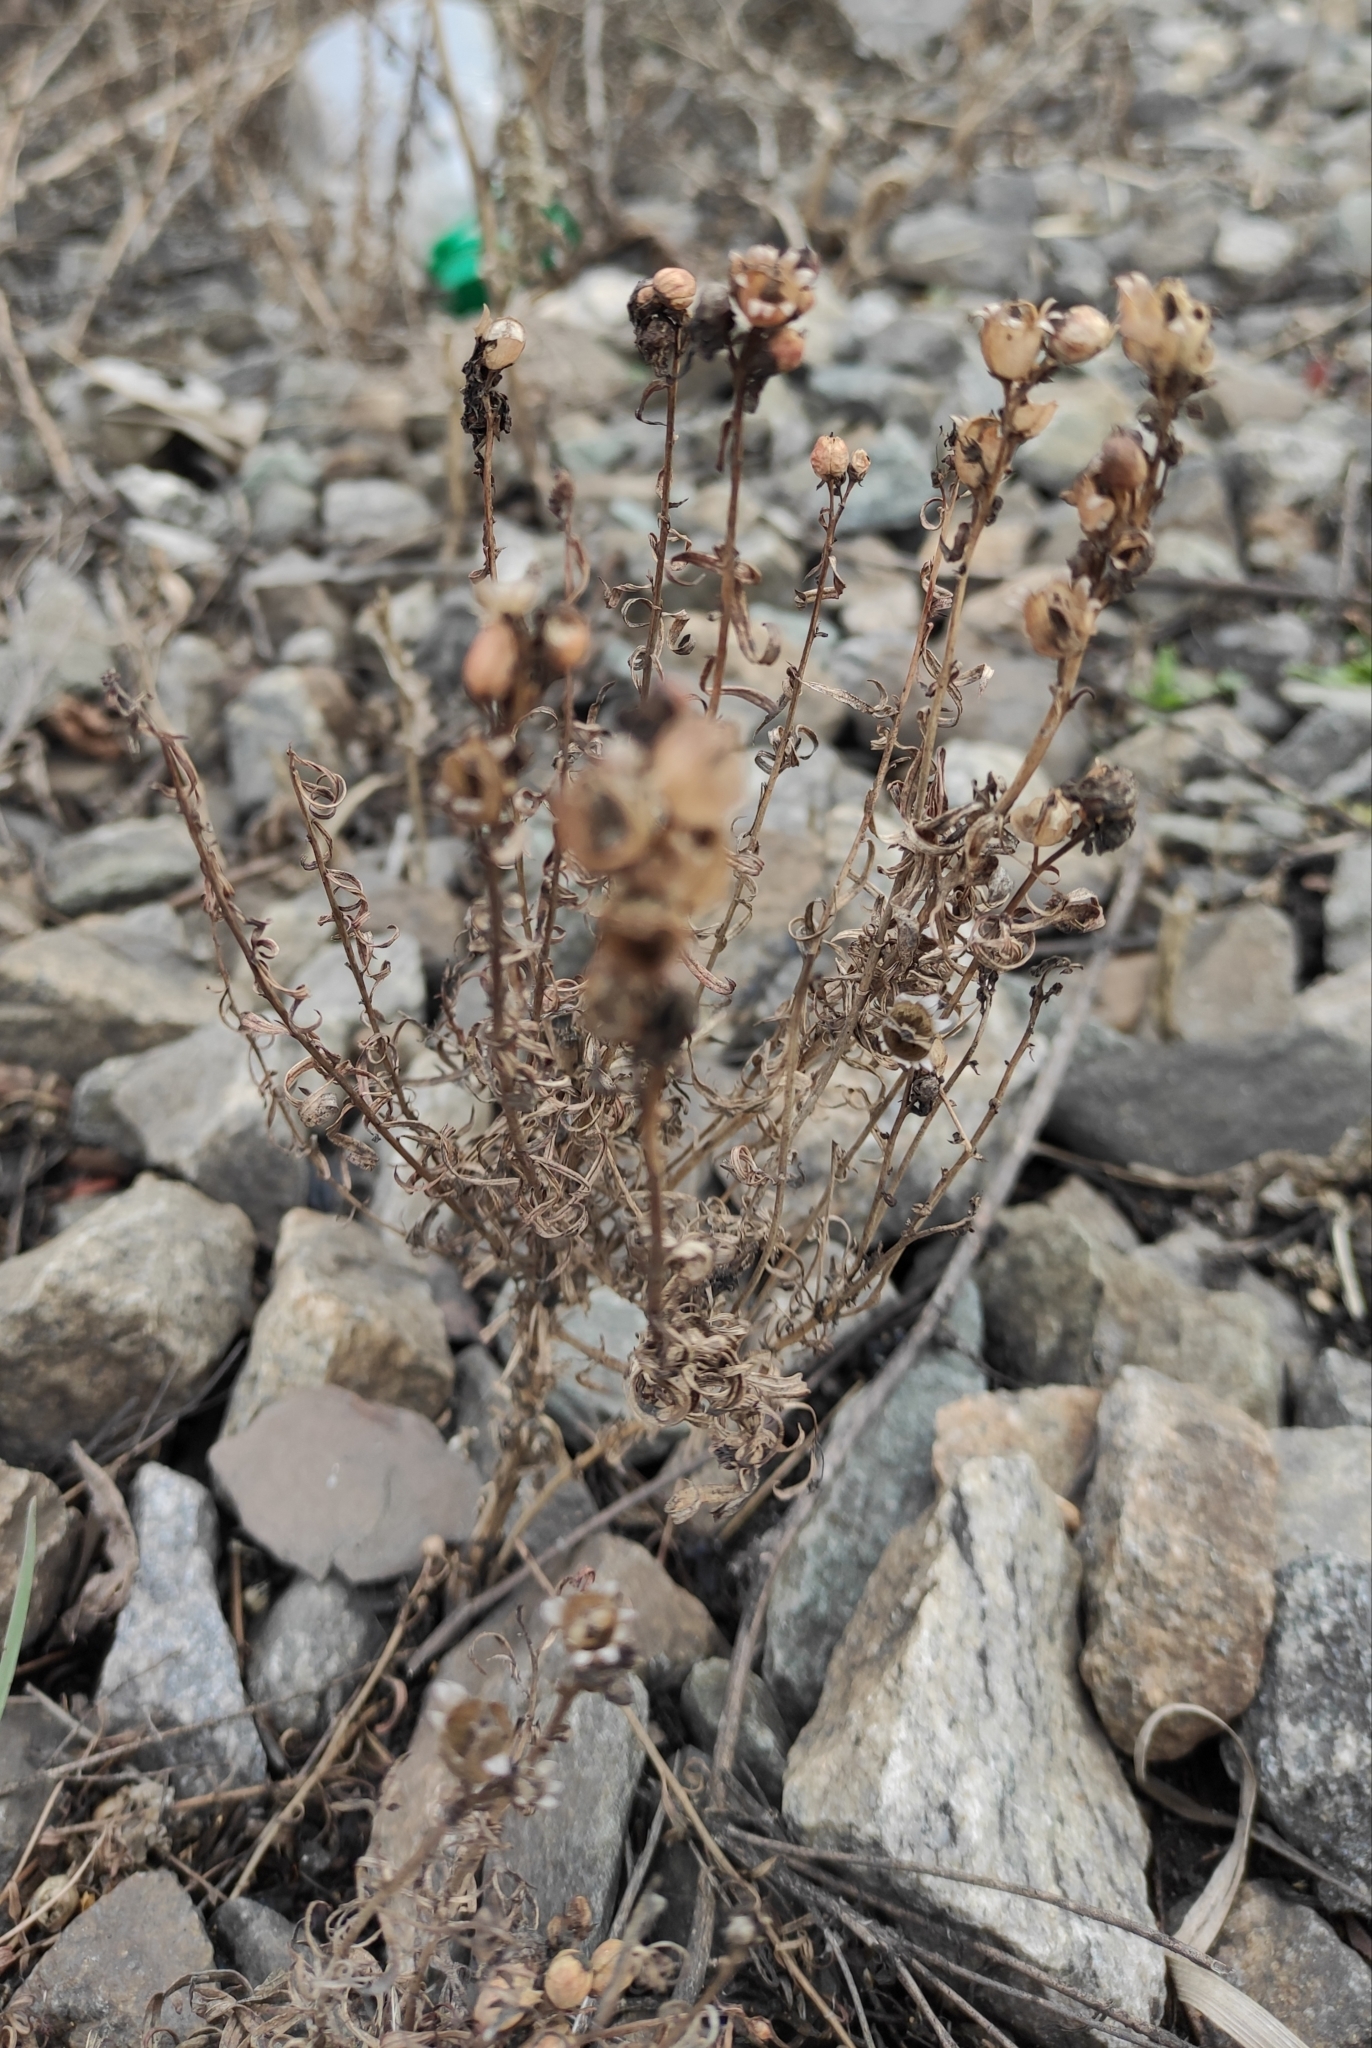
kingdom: Plantae
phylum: Tracheophyta
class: Magnoliopsida
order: Lamiales
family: Plantaginaceae
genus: Linaria
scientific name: Linaria vulgaris
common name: Butter and eggs
